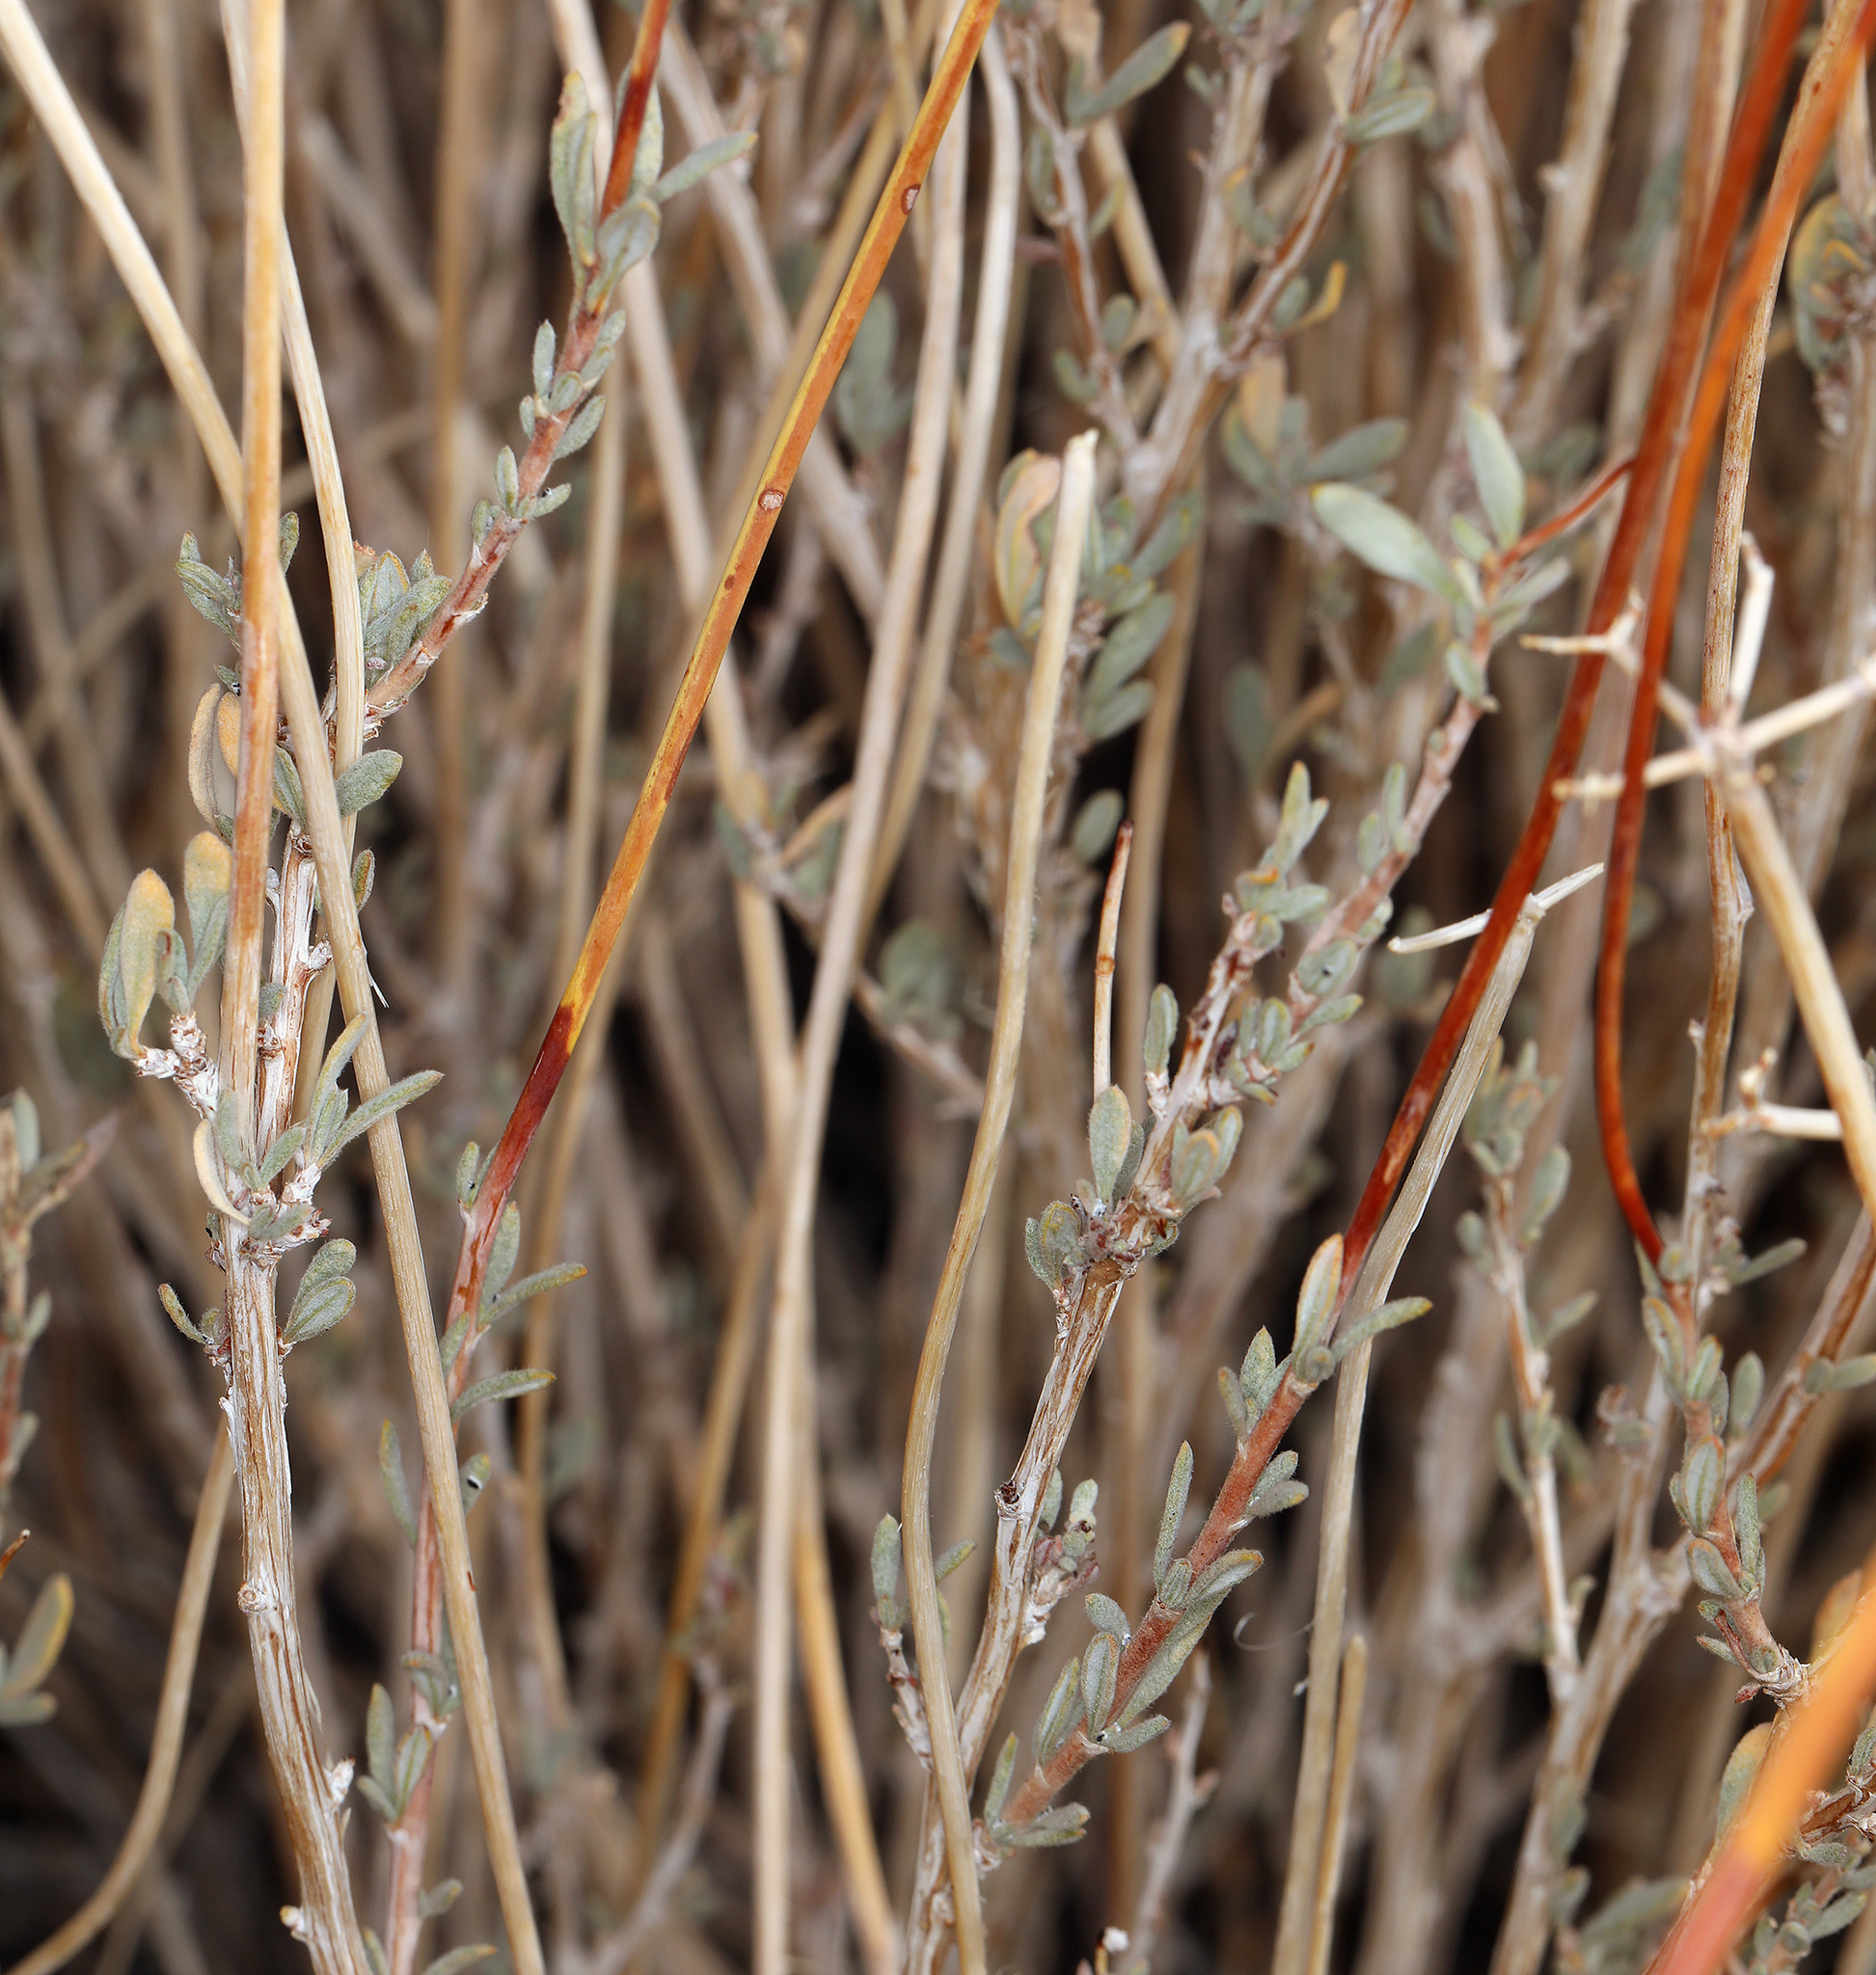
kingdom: Plantae
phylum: Tracheophyta
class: Magnoliopsida
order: Caryophyllales
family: Polygonaceae
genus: Eriogonum
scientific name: Eriogonum fasciculatum
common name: California wild buckwheat
